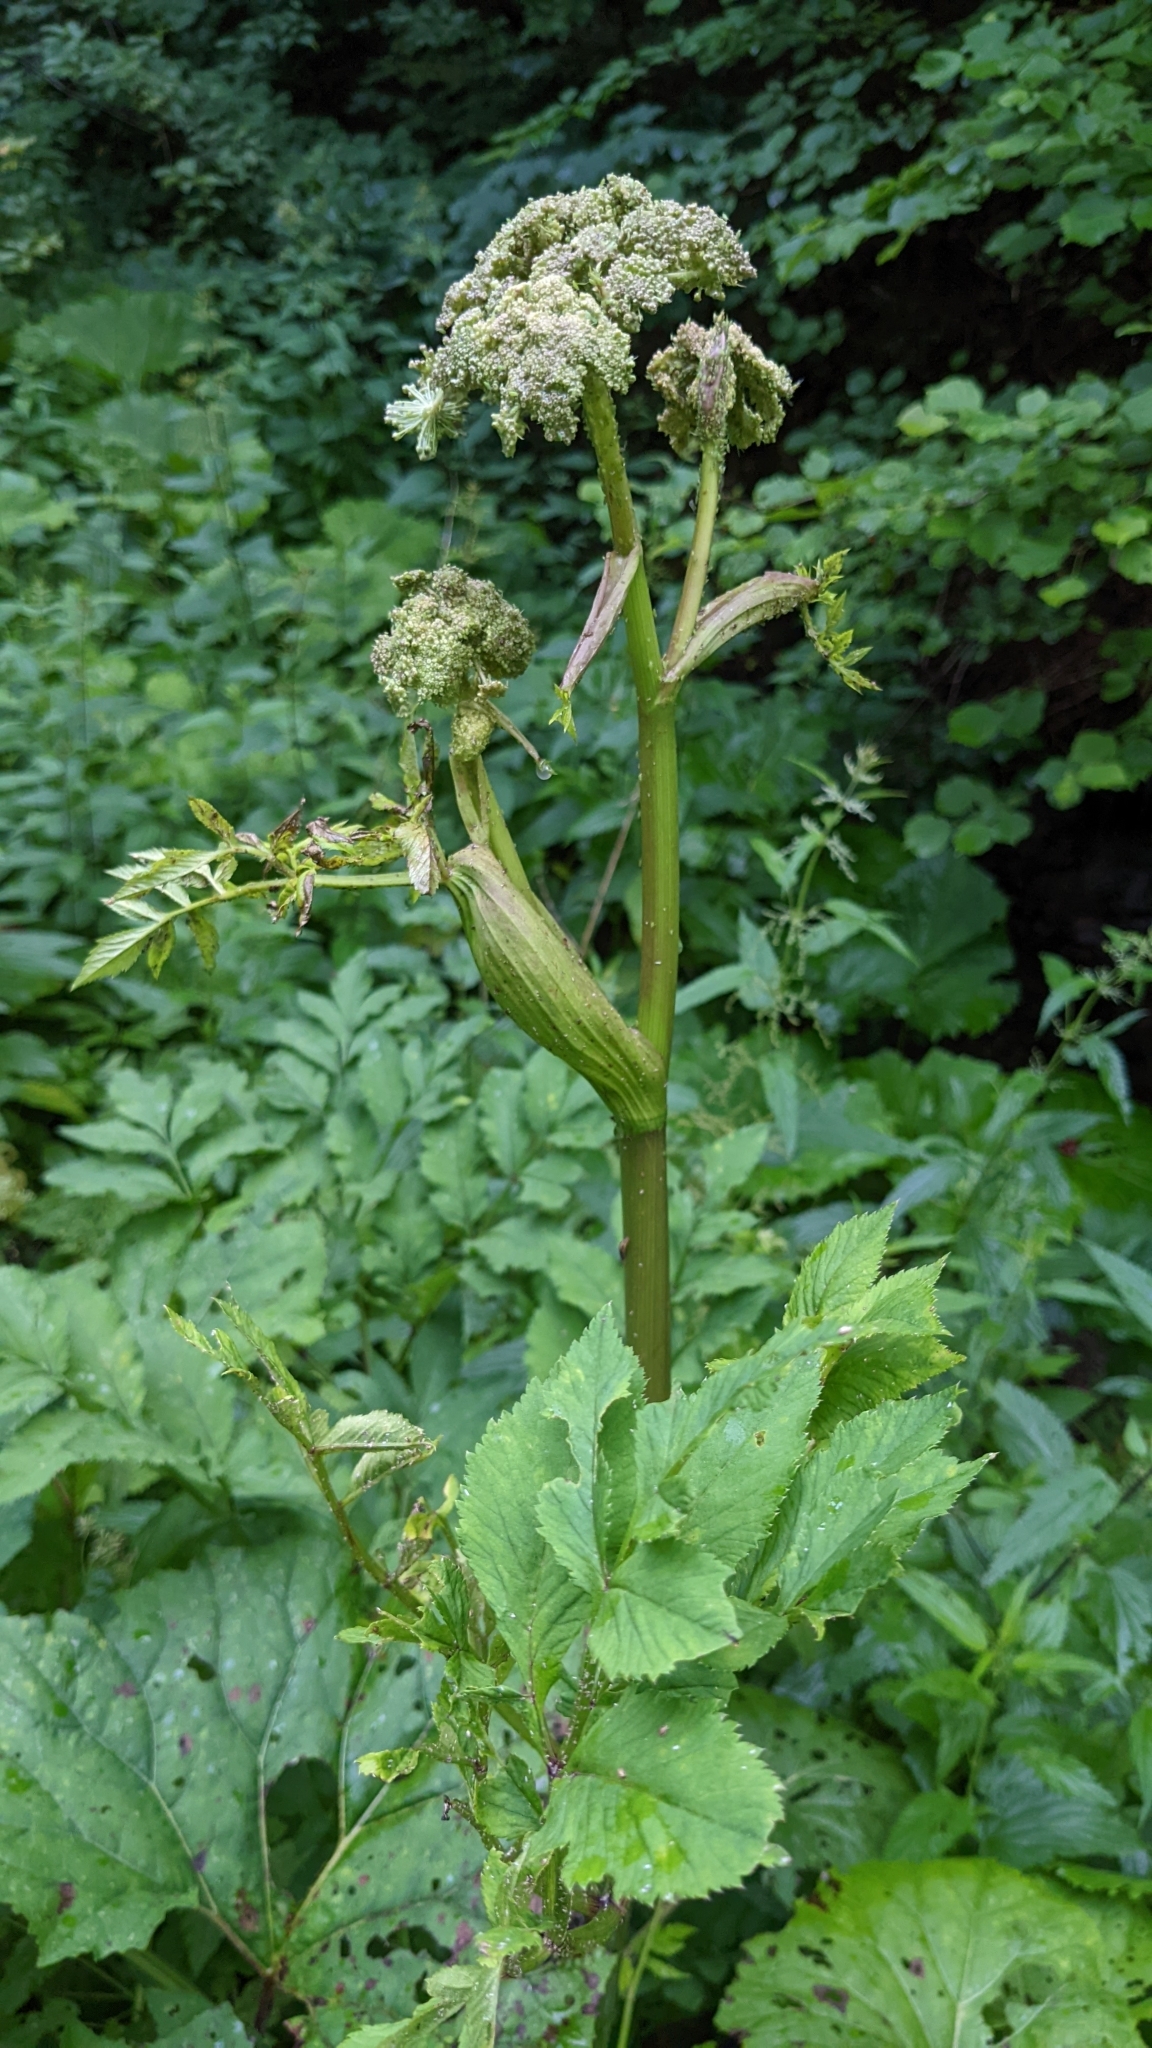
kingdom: Plantae
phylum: Tracheophyta
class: Magnoliopsida
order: Apiales
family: Apiaceae
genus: Angelica
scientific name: Angelica archangelica
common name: Garden angelica
